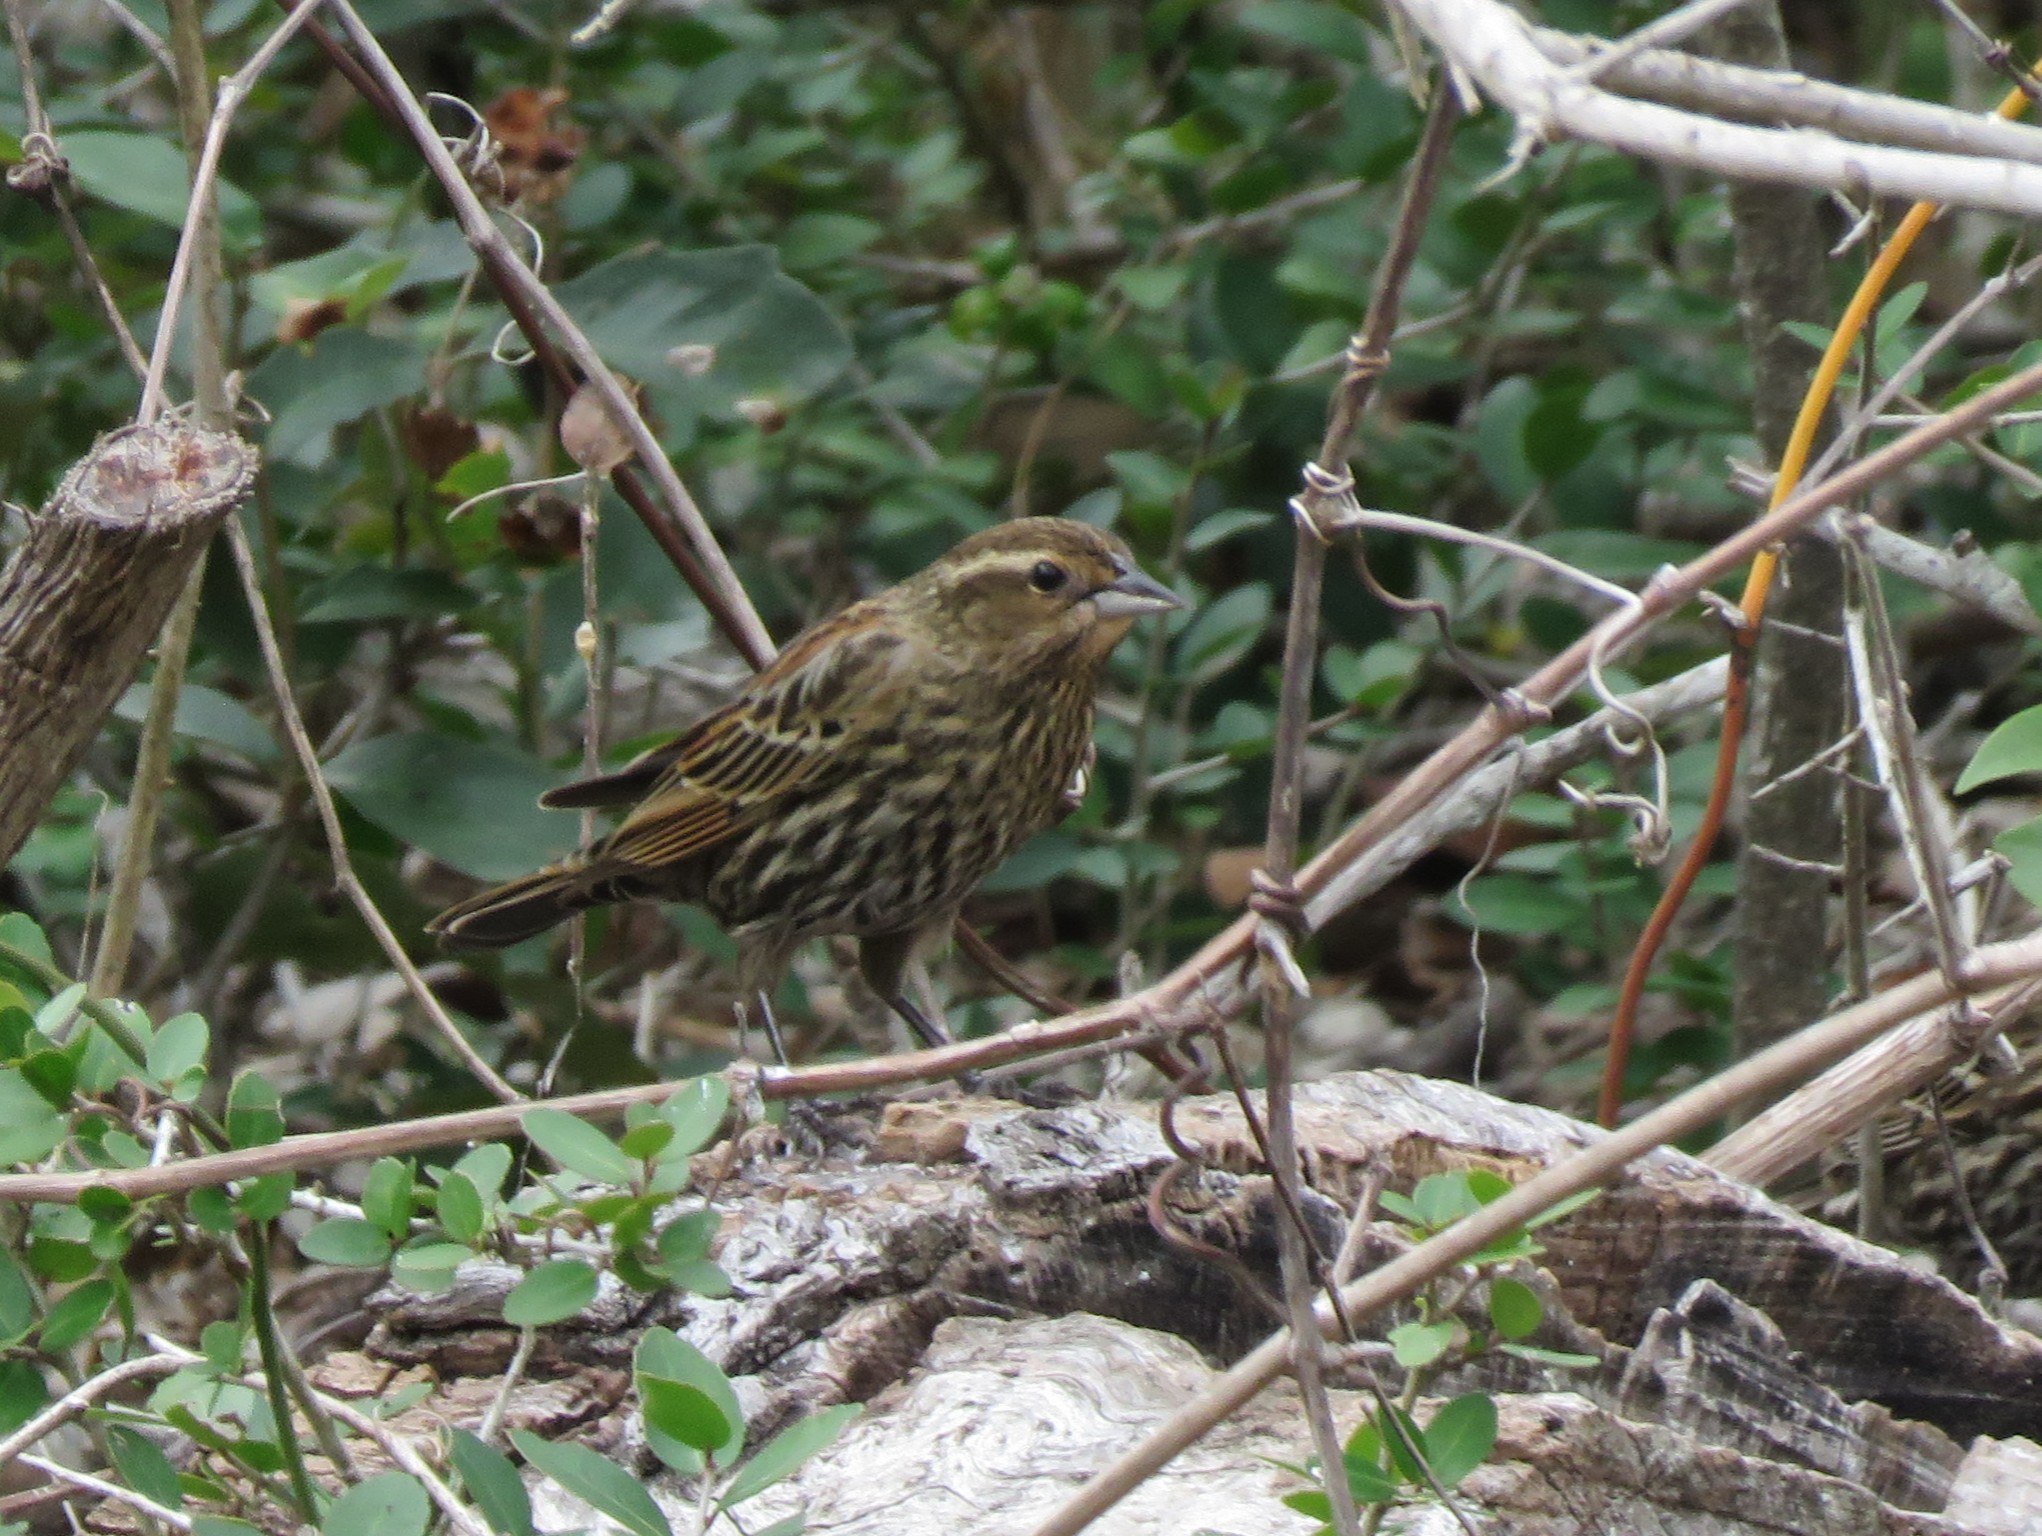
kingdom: Animalia
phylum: Chordata
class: Aves
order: Passeriformes
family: Icteridae
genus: Agelaius
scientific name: Agelaius phoeniceus
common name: Red-winged blackbird
